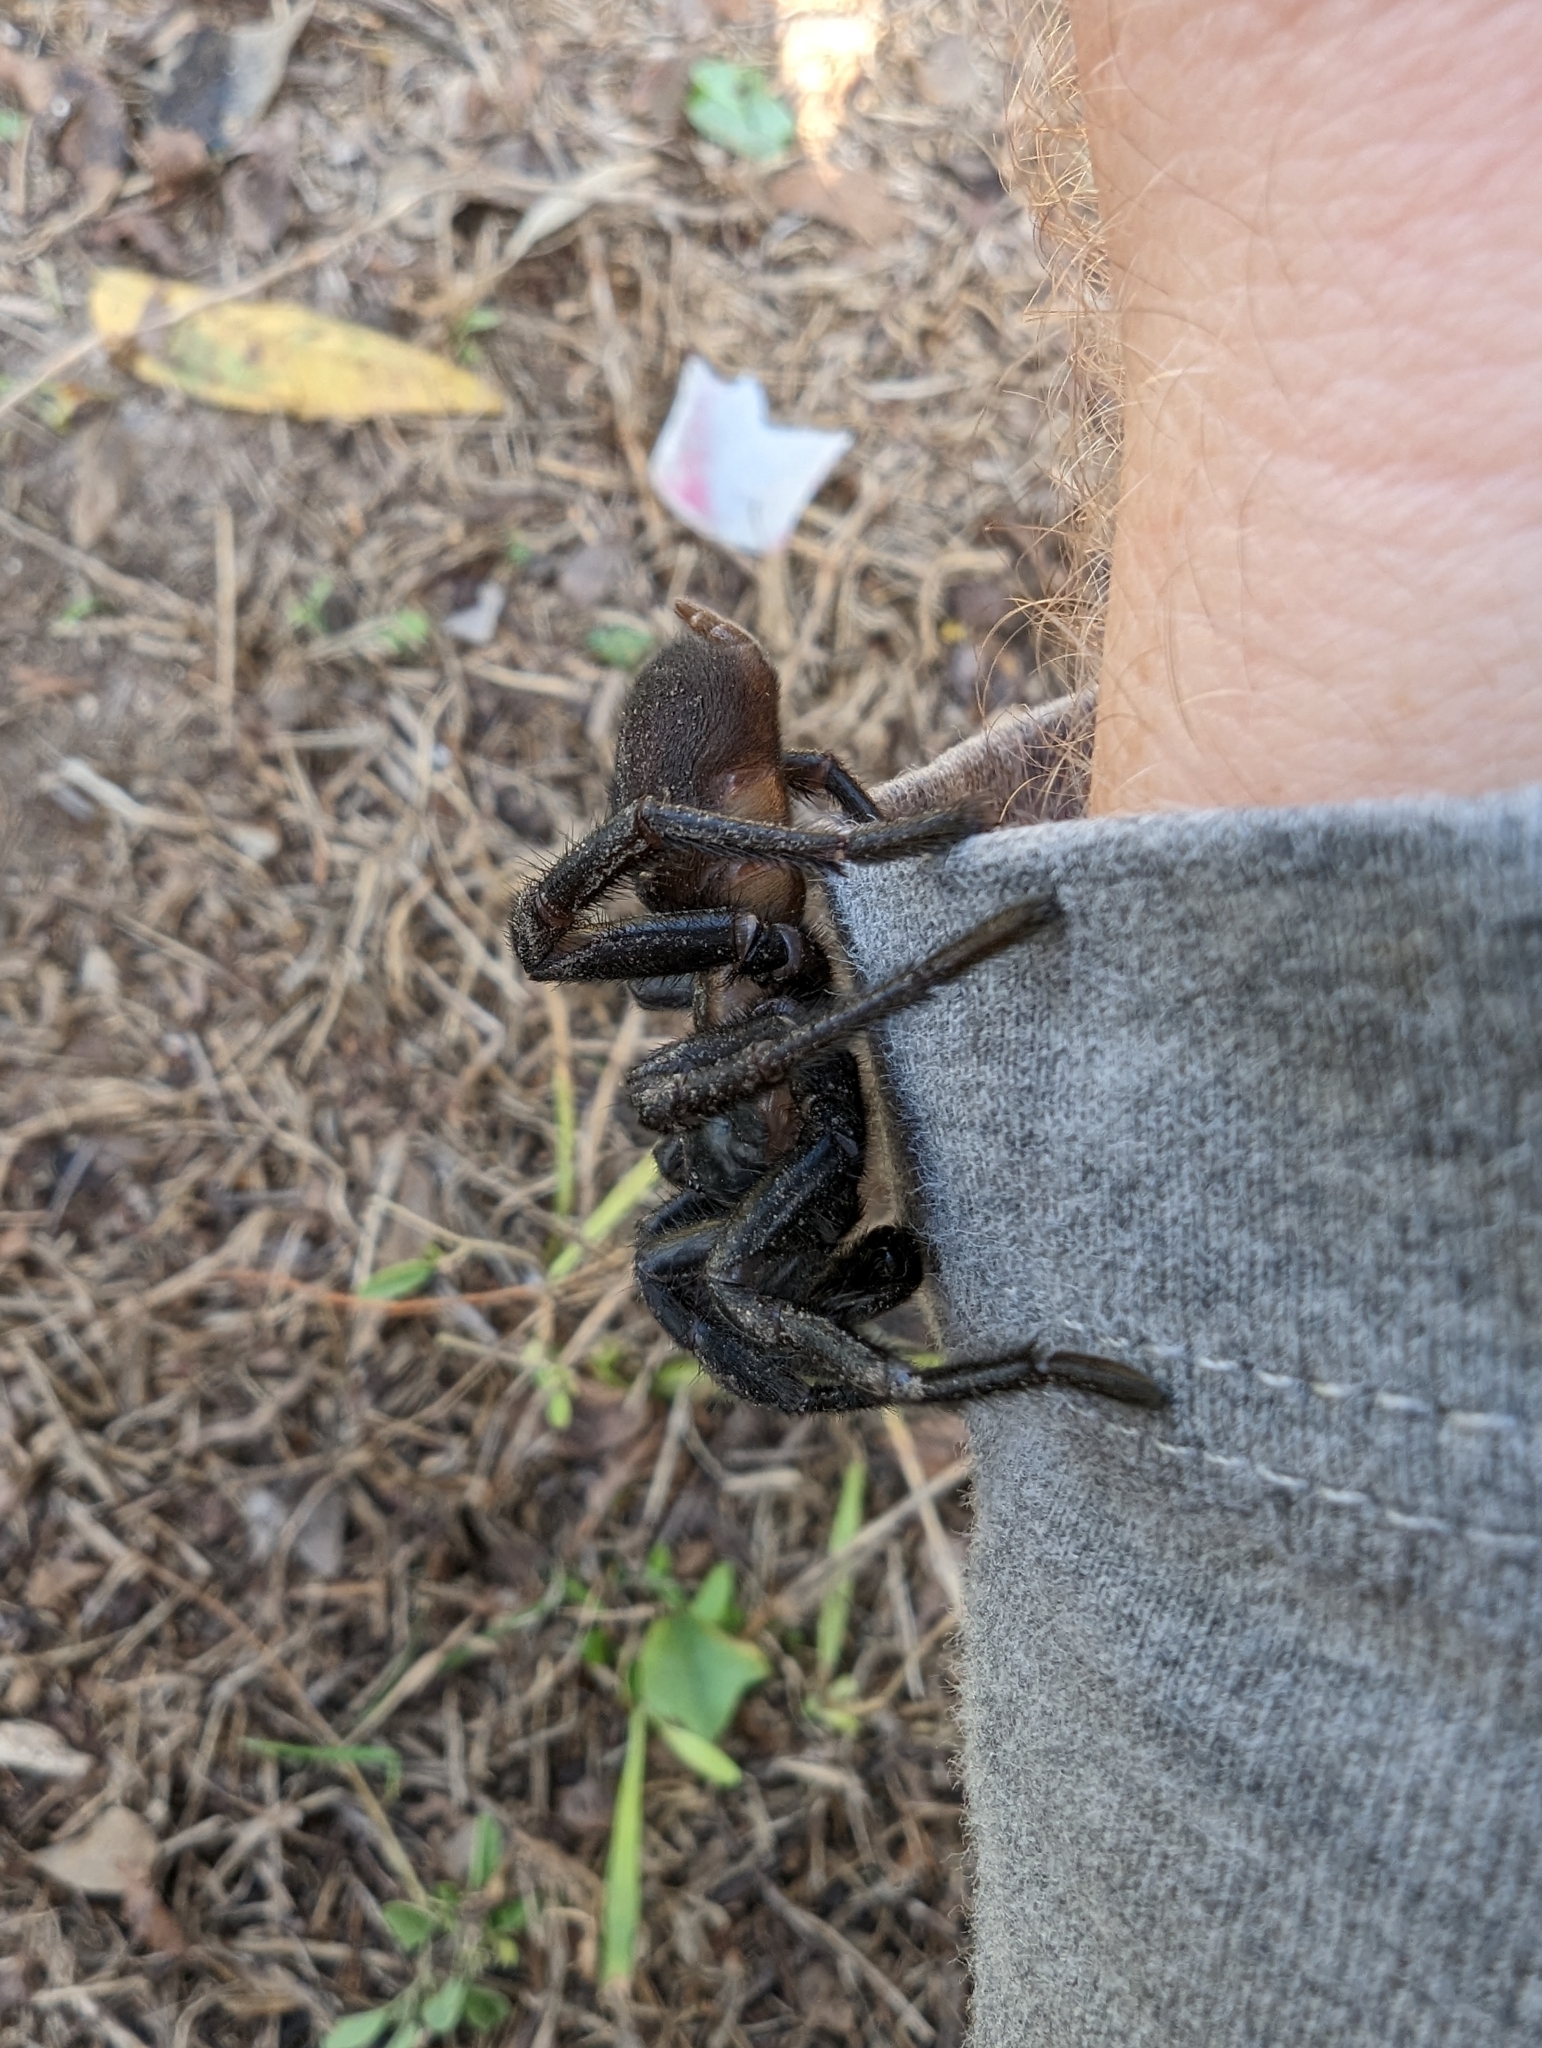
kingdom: Animalia
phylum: Arthropoda
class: Arachnida
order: Araneae
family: Euctenizidae
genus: Eucteniza
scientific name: Eucteniza relata
